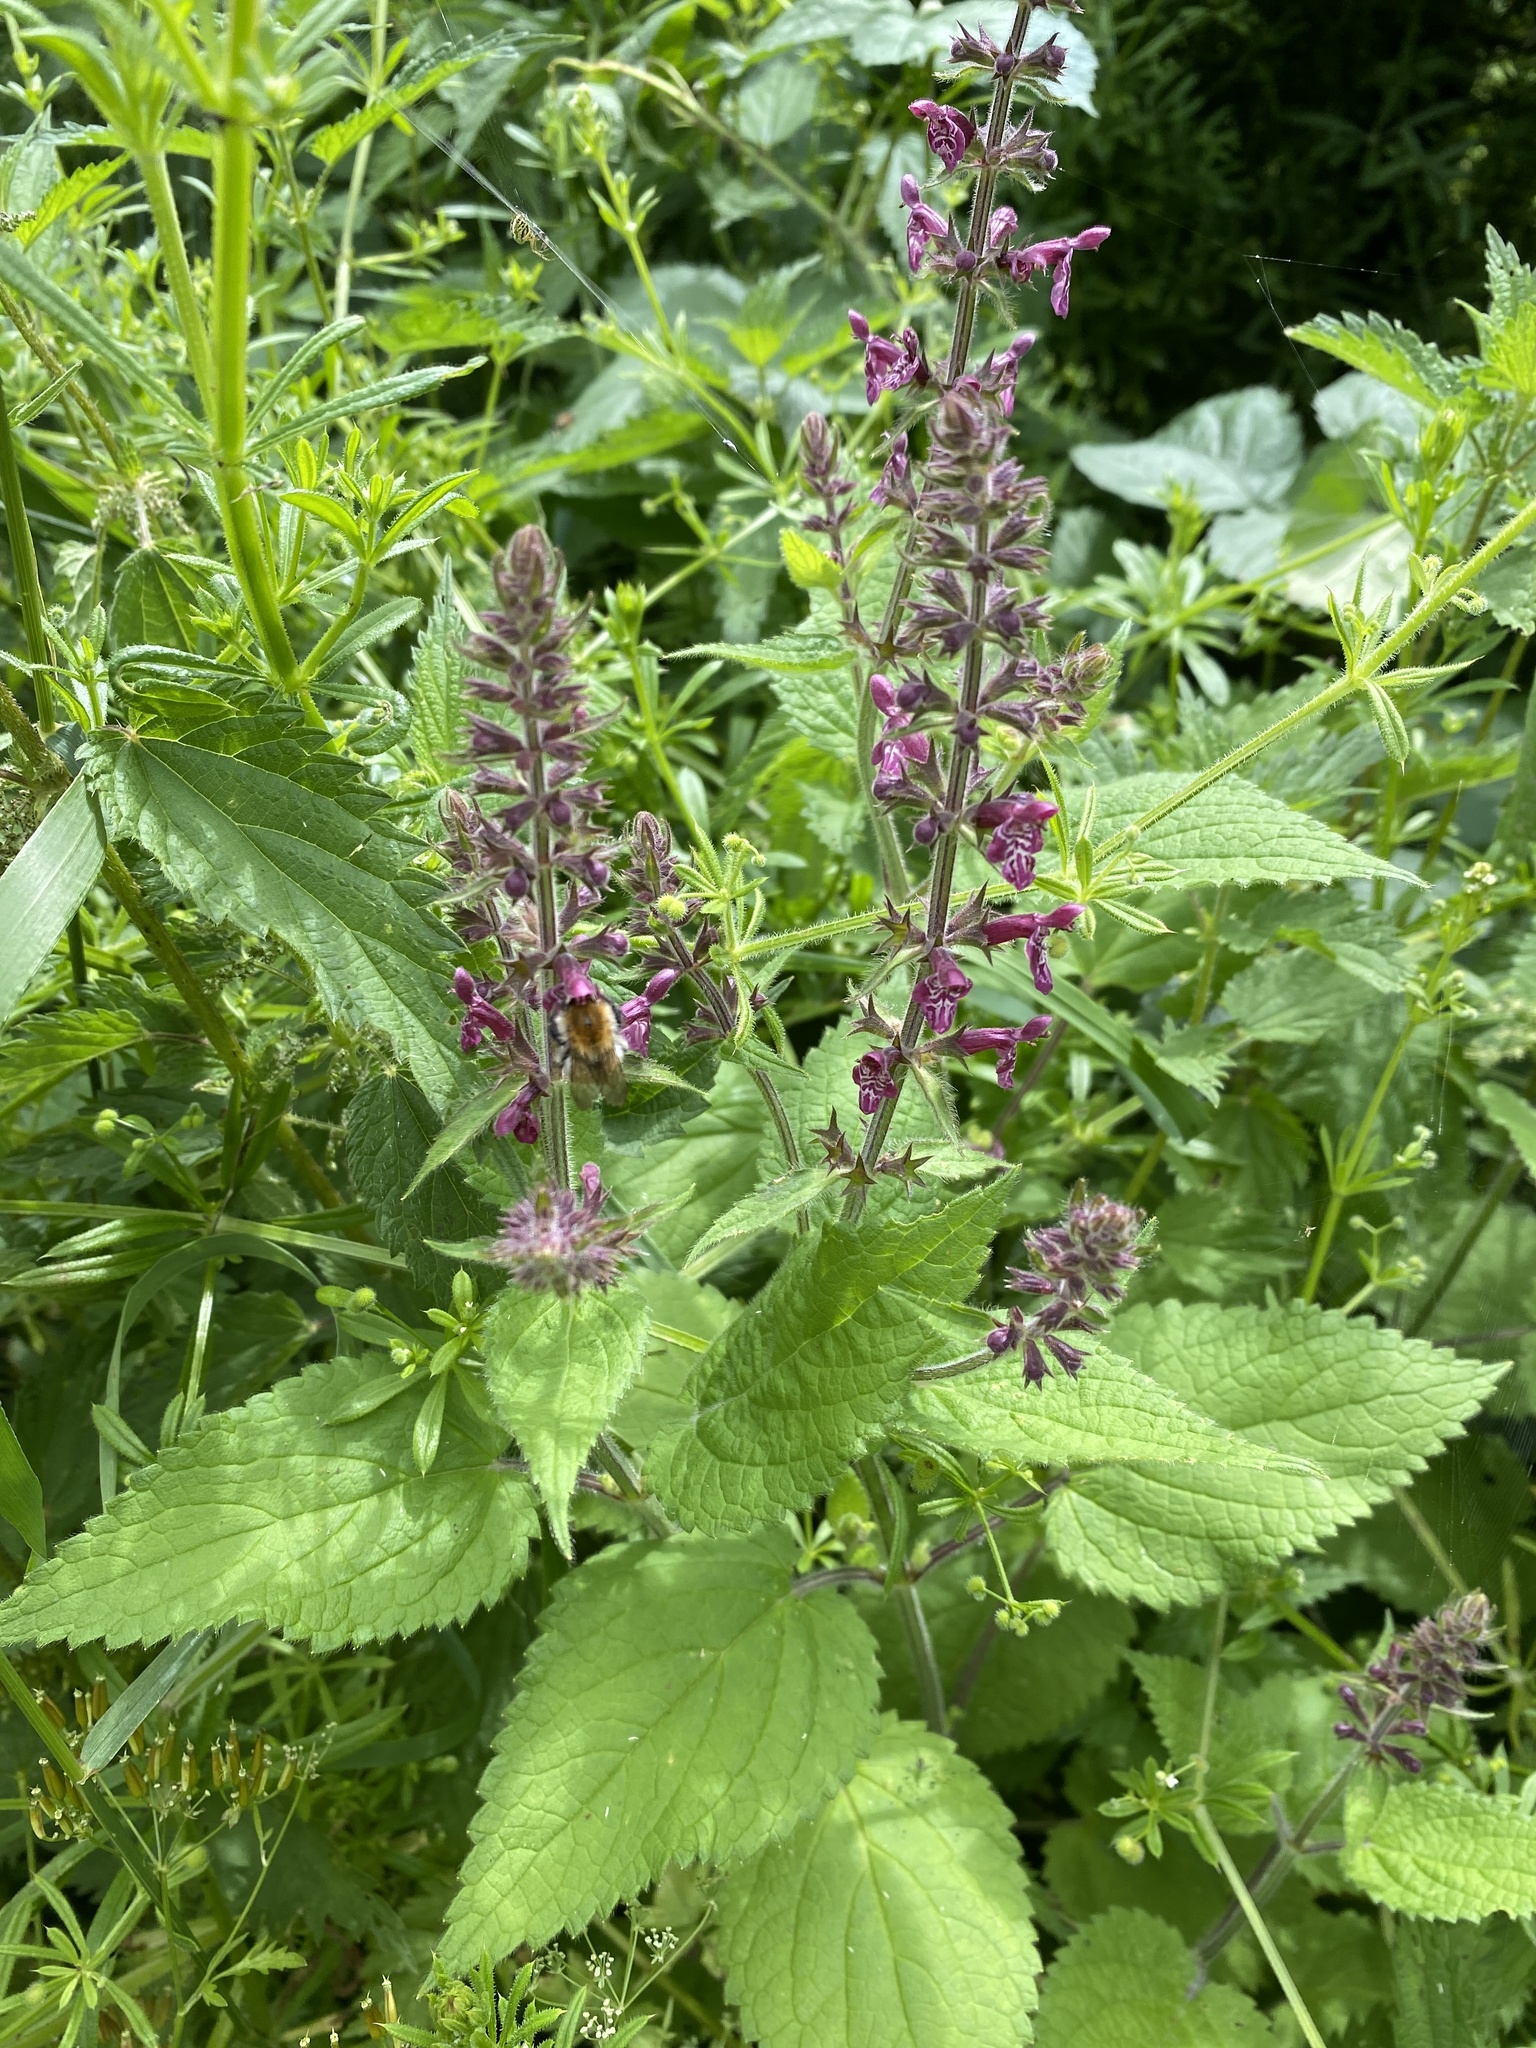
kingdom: Plantae
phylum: Tracheophyta
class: Magnoliopsida
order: Lamiales
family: Lamiaceae
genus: Stachys
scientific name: Stachys sylvatica
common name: Hedge woundwort
